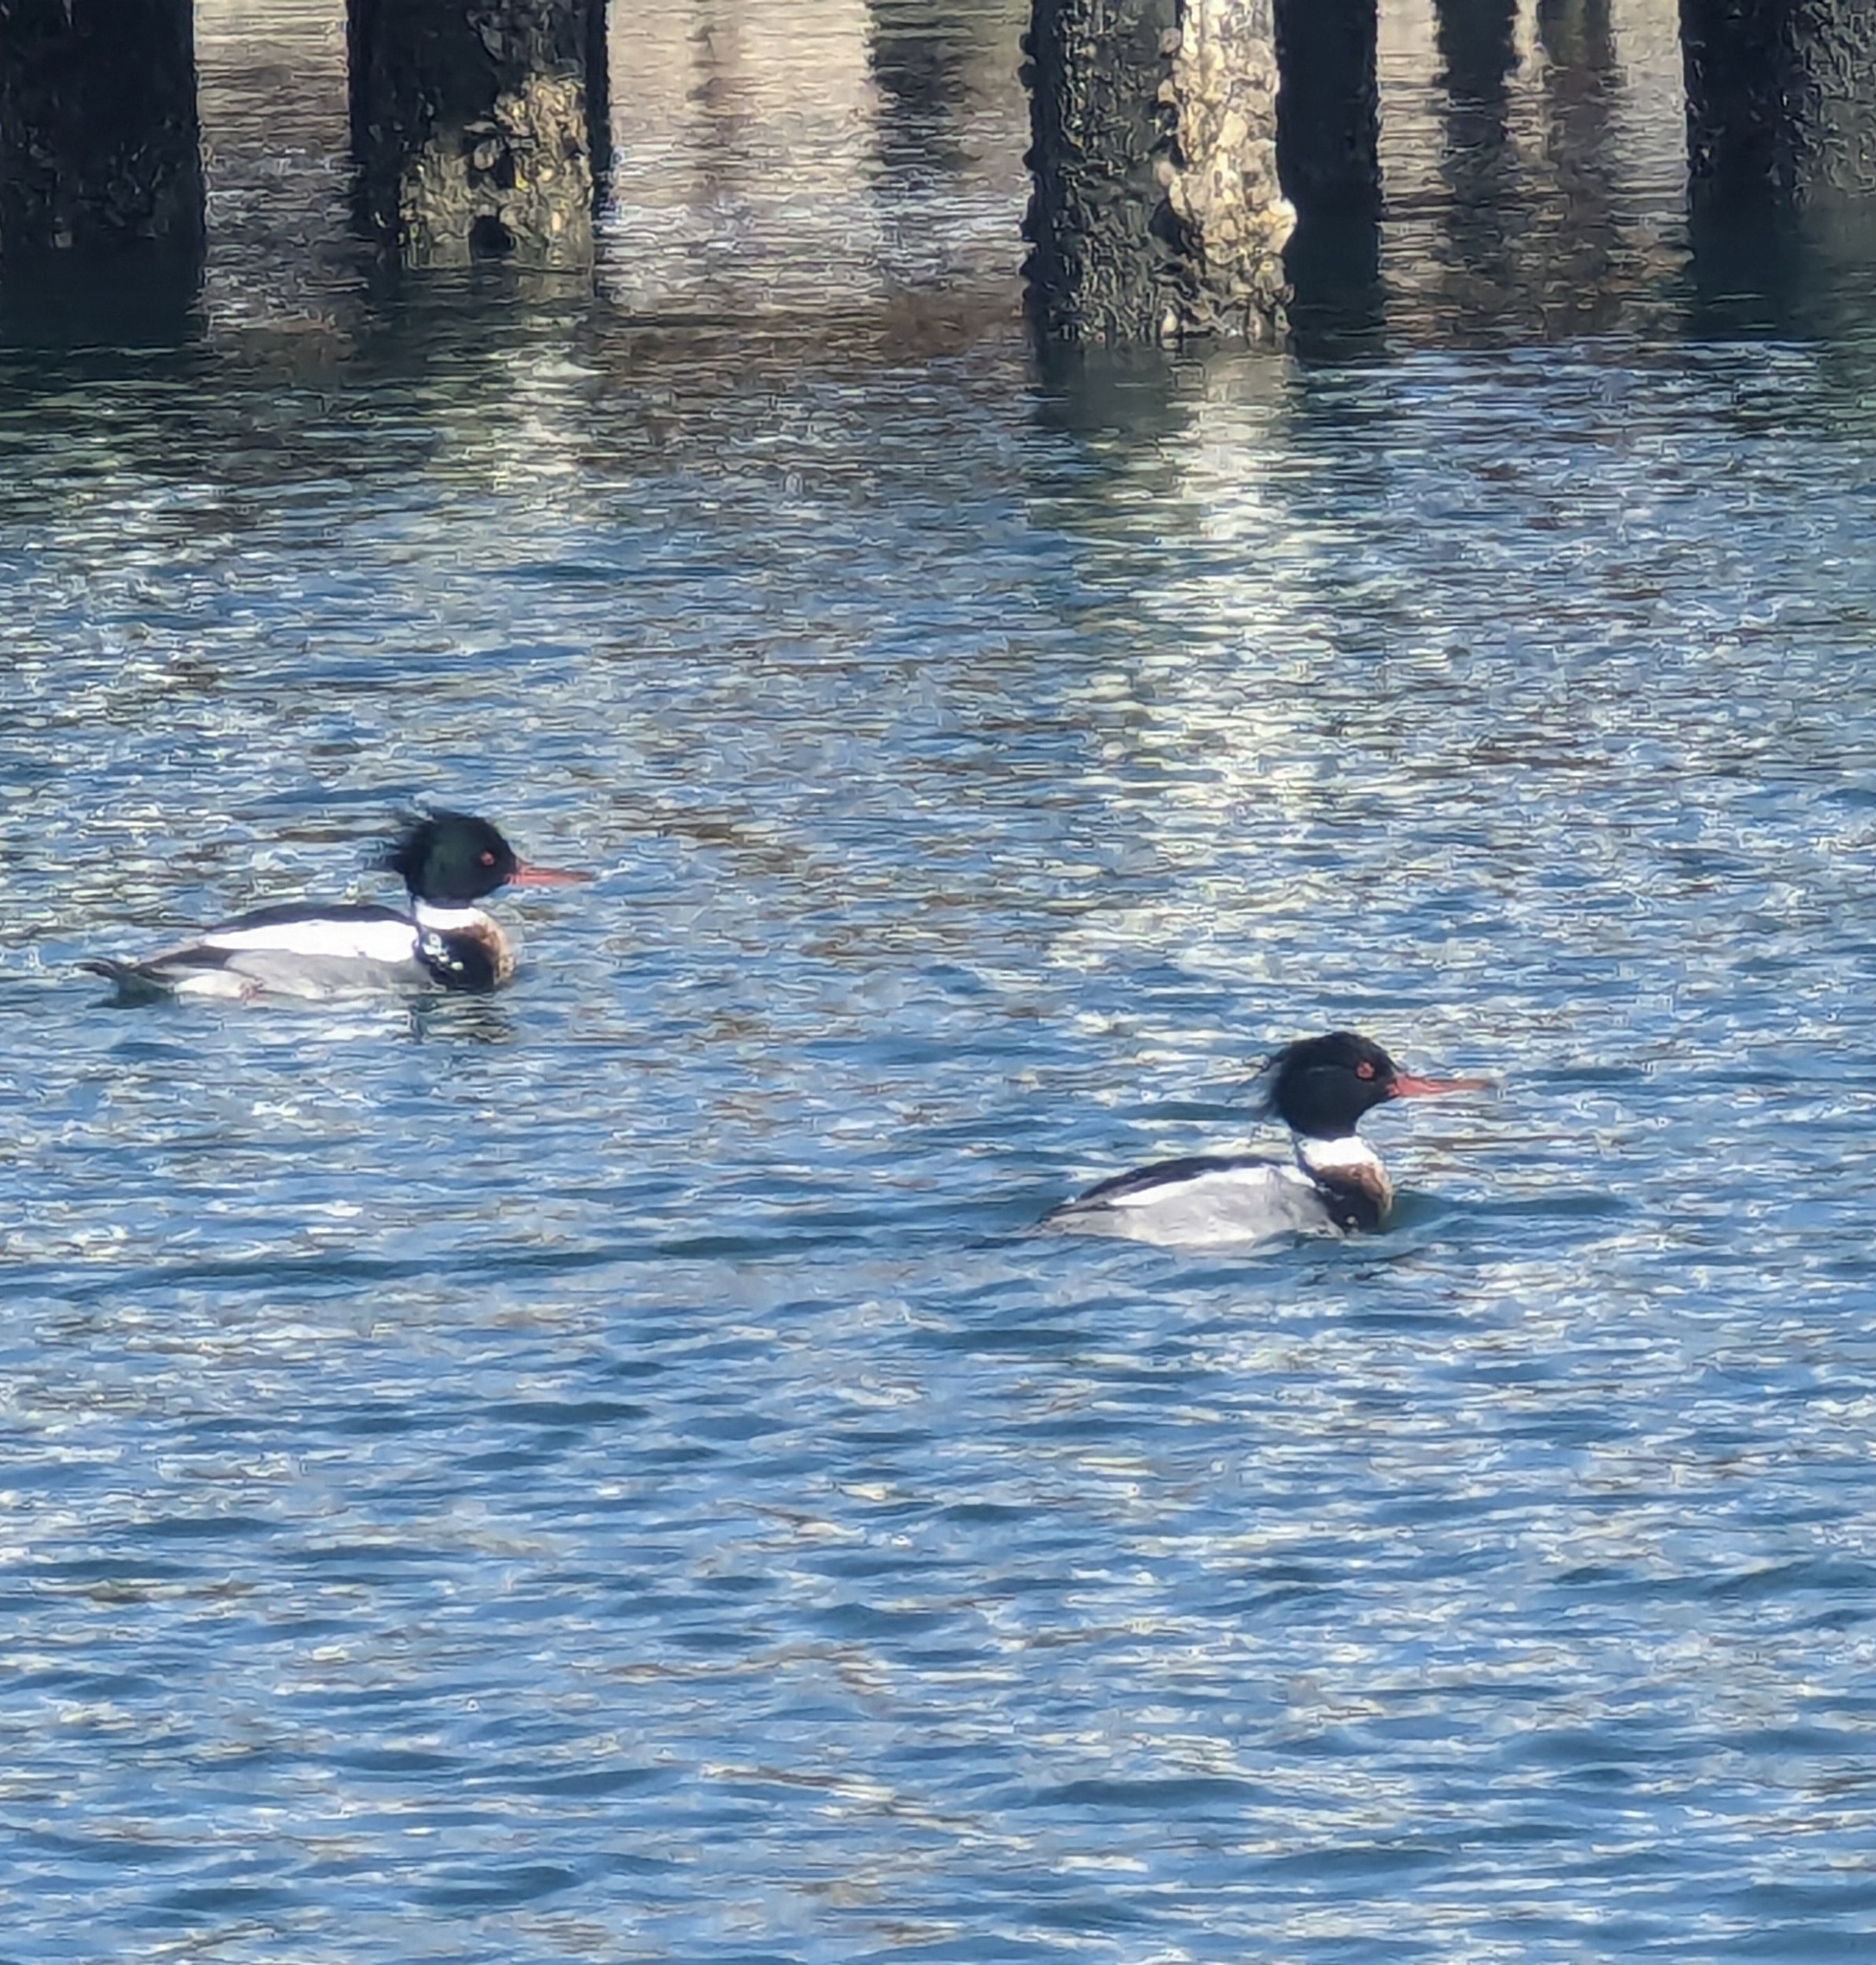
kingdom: Animalia
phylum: Chordata
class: Aves
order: Anseriformes
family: Anatidae
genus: Mergus
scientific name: Mergus serrator
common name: Red-breasted merganser
